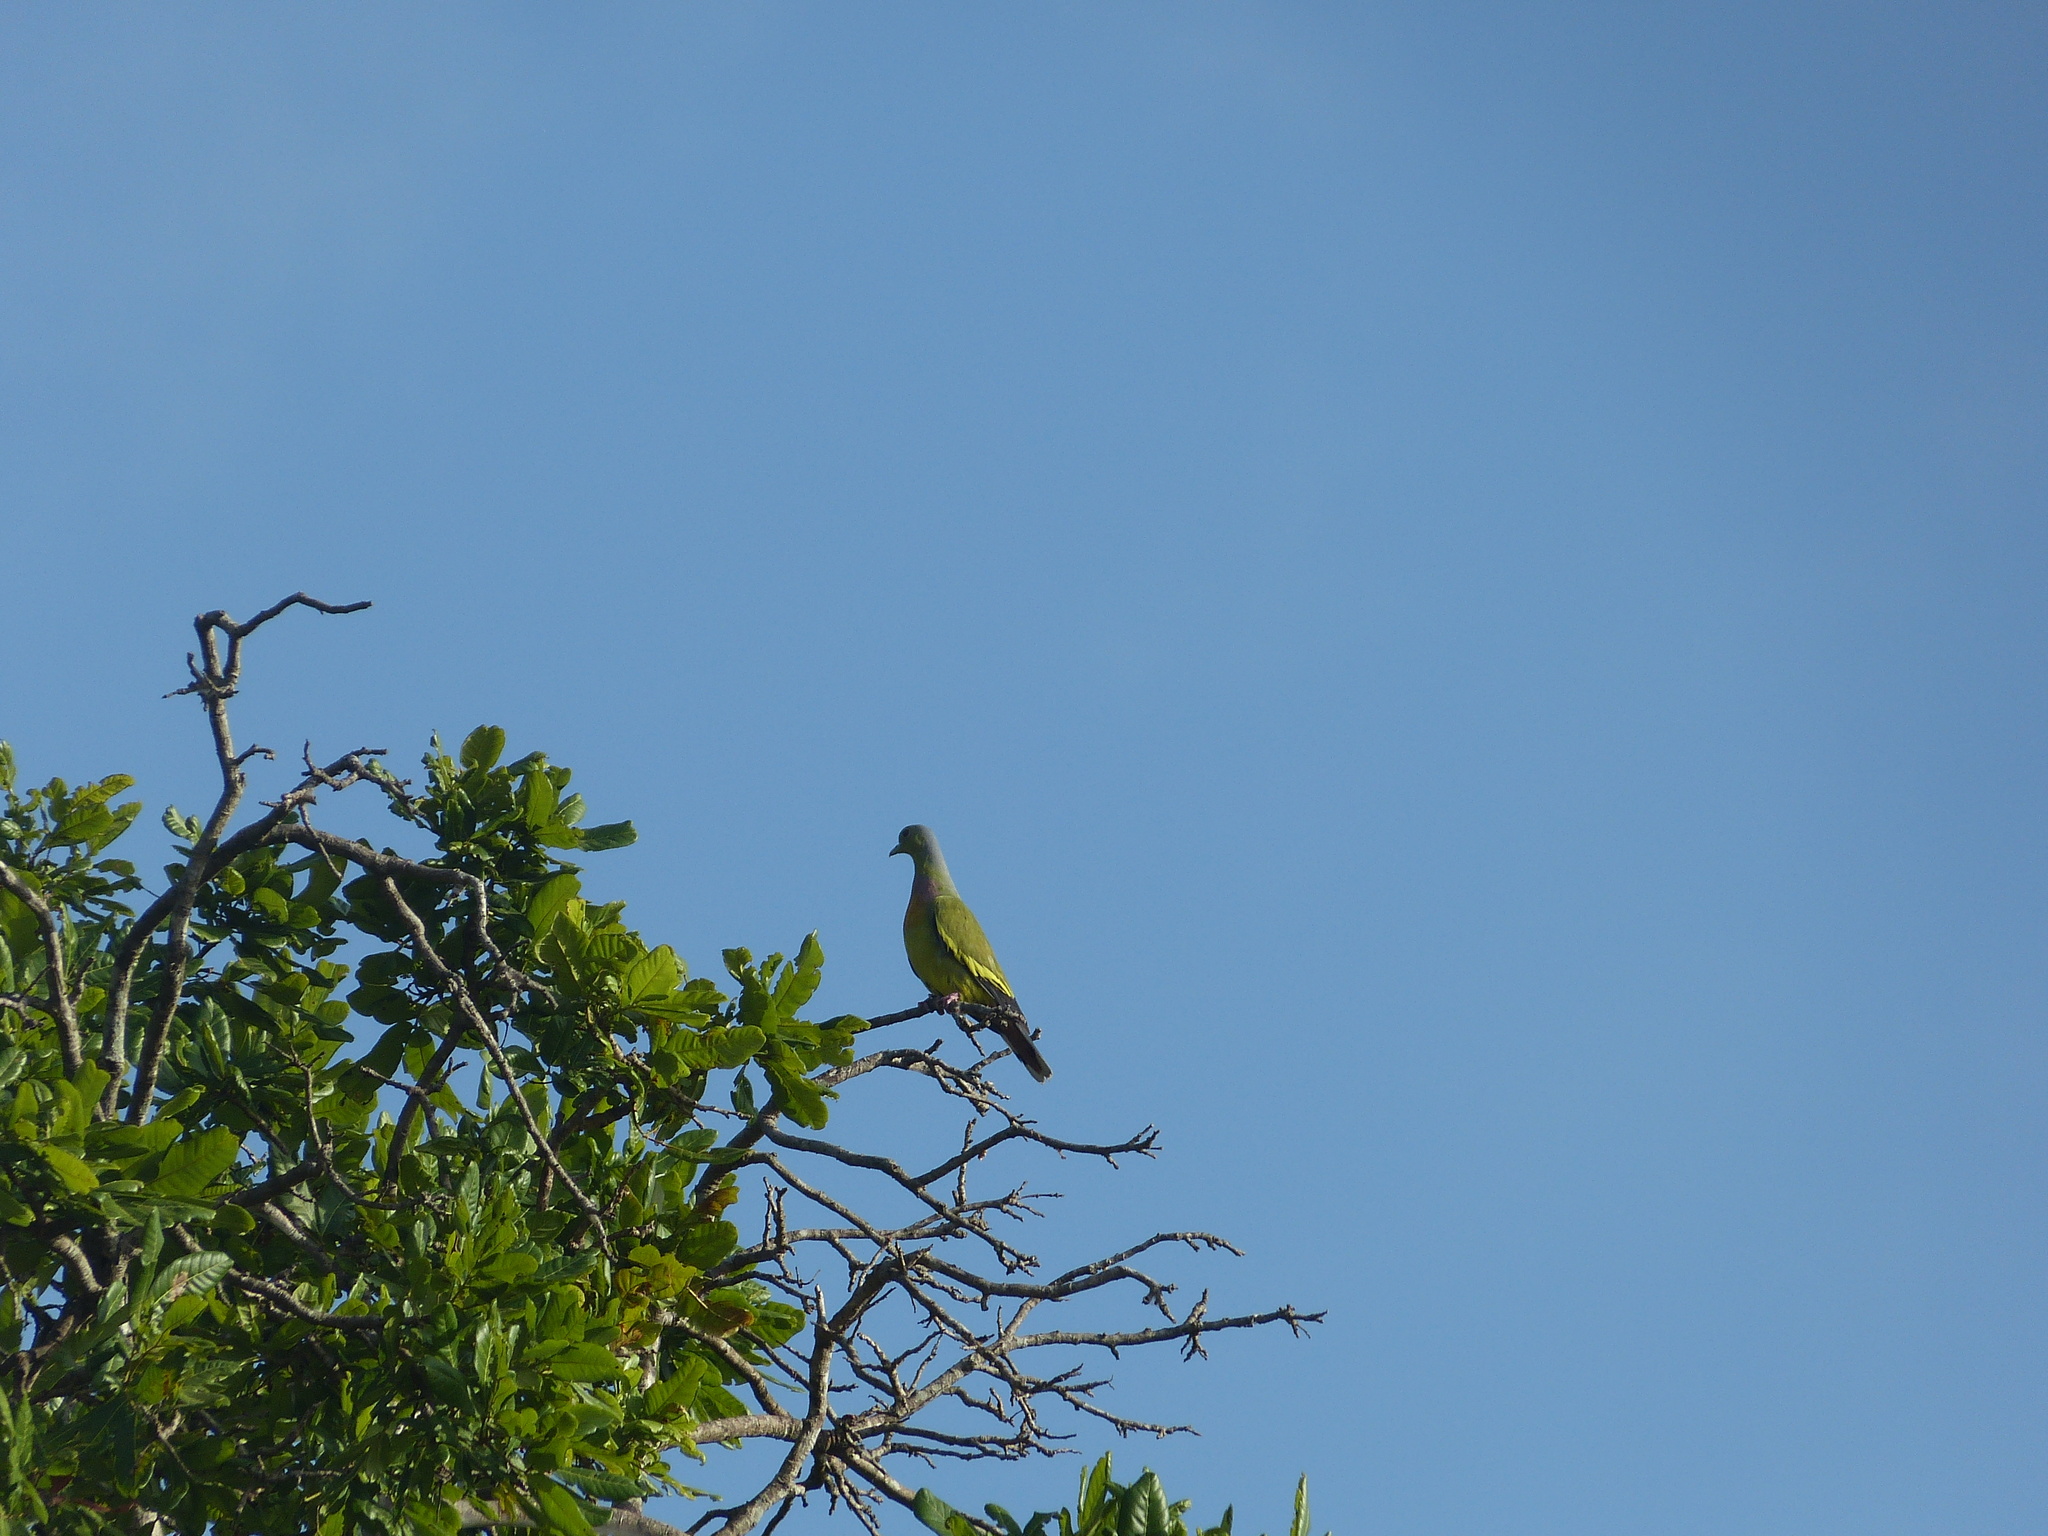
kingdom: Animalia
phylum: Chordata
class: Aves
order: Columbiformes
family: Columbidae
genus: Treron
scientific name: Treron bicinctus
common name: Orange-breasted green pigeon
